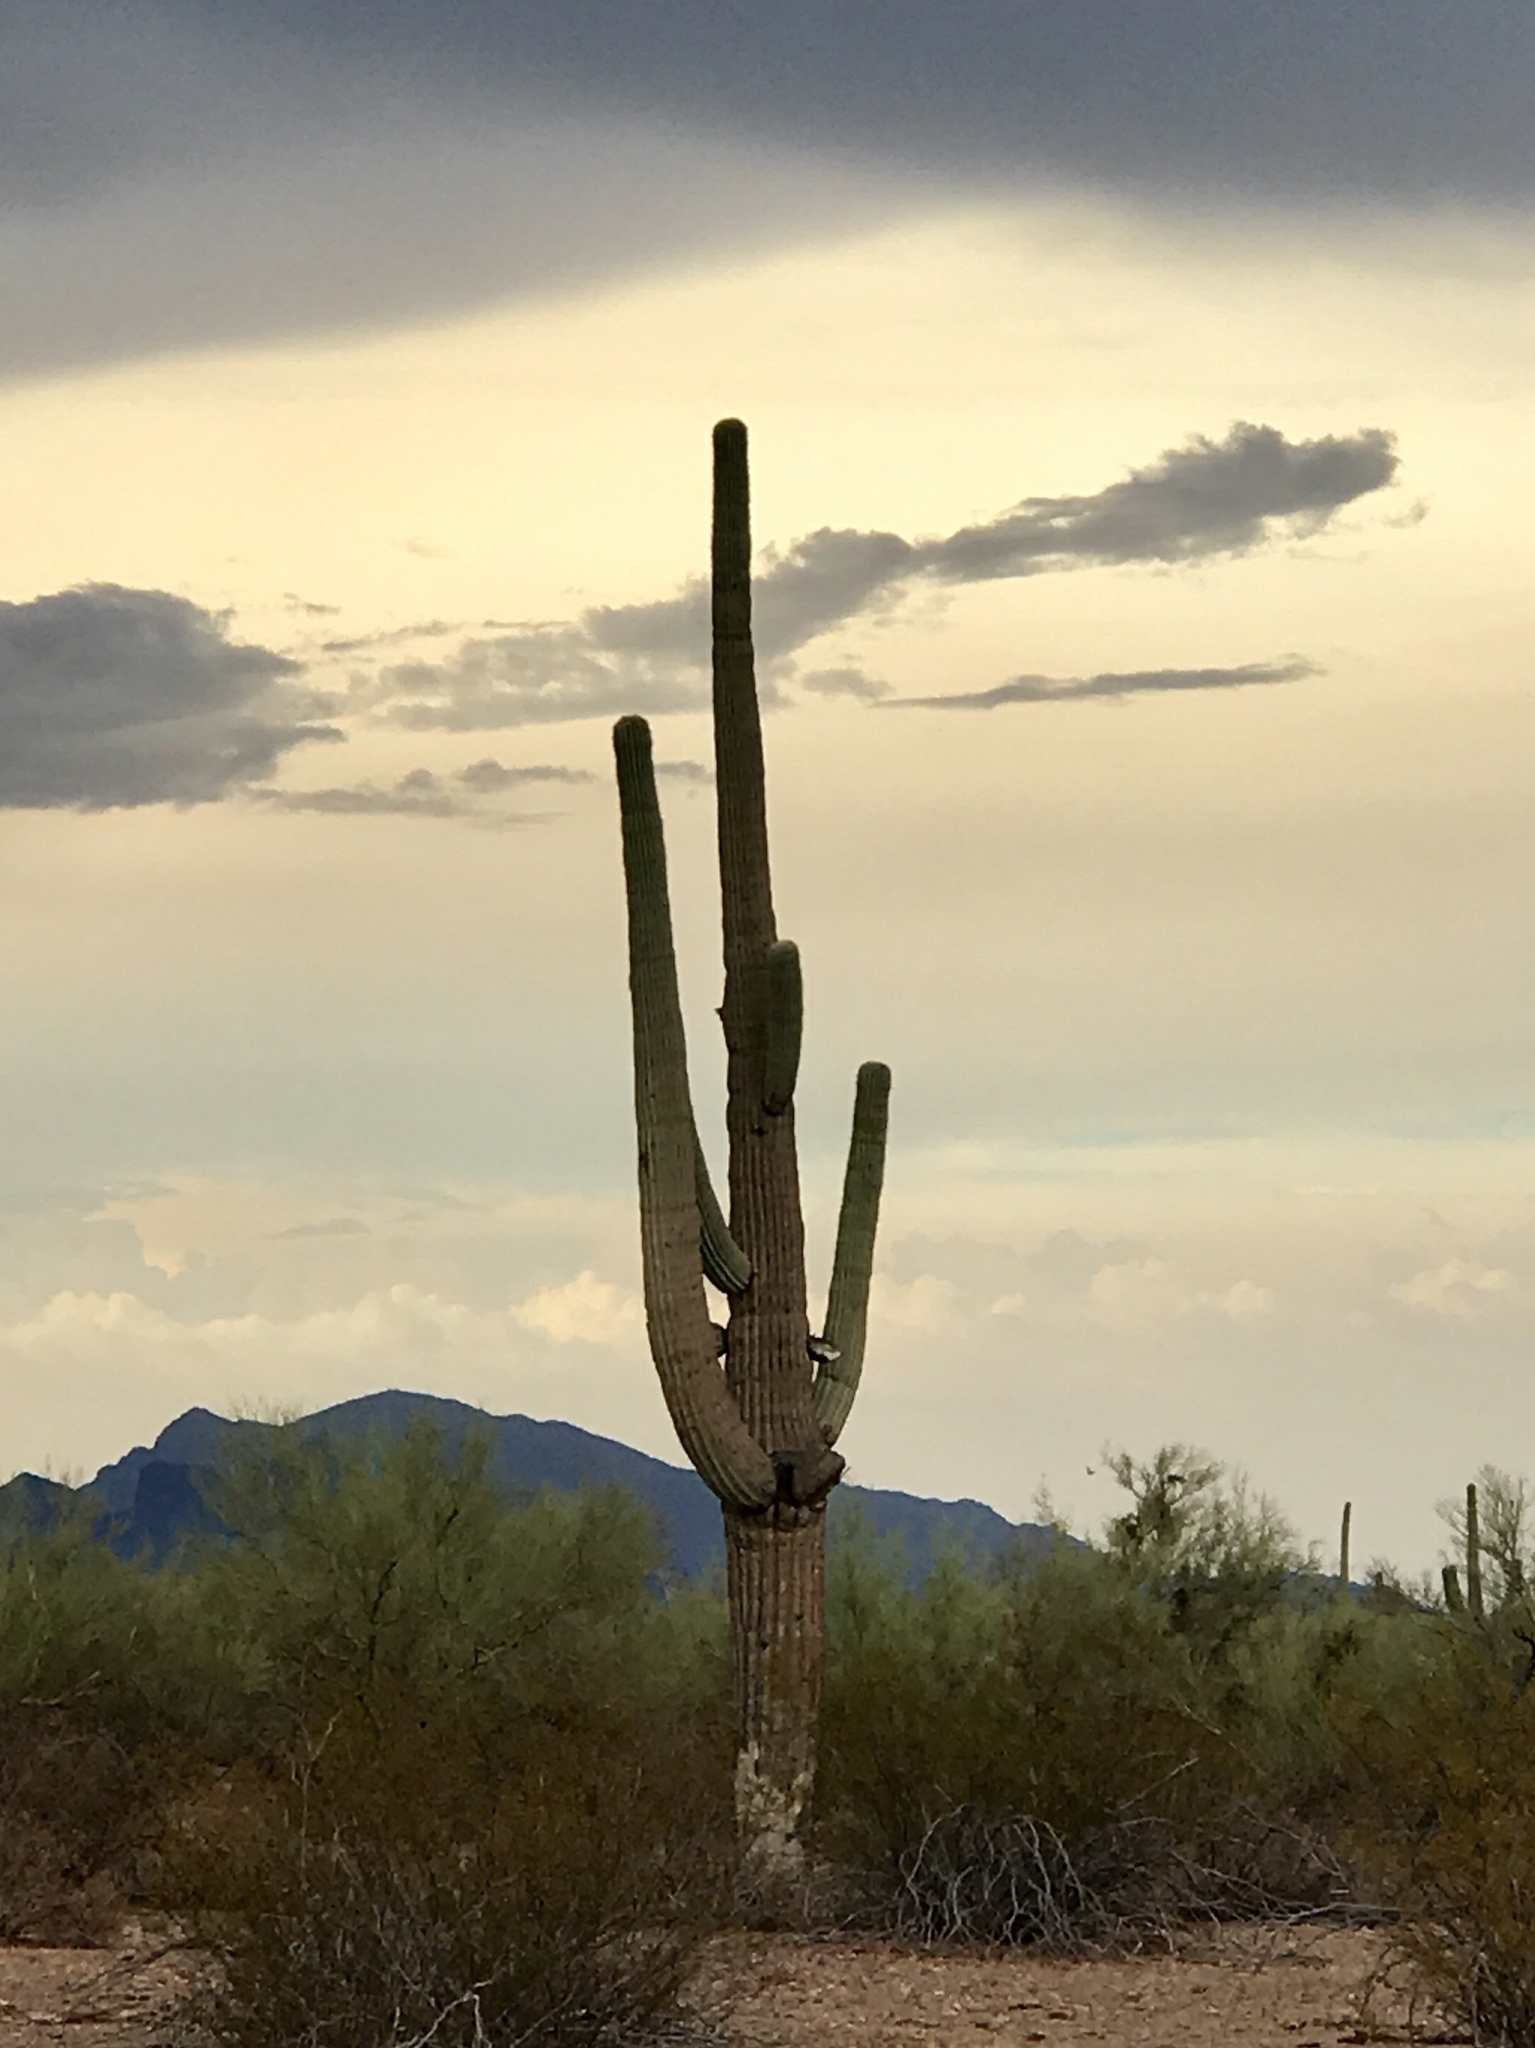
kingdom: Plantae
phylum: Tracheophyta
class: Magnoliopsida
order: Caryophyllales
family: Cactaceae
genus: Carnegiea
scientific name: Carnegiea gigantea
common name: Saguaro
